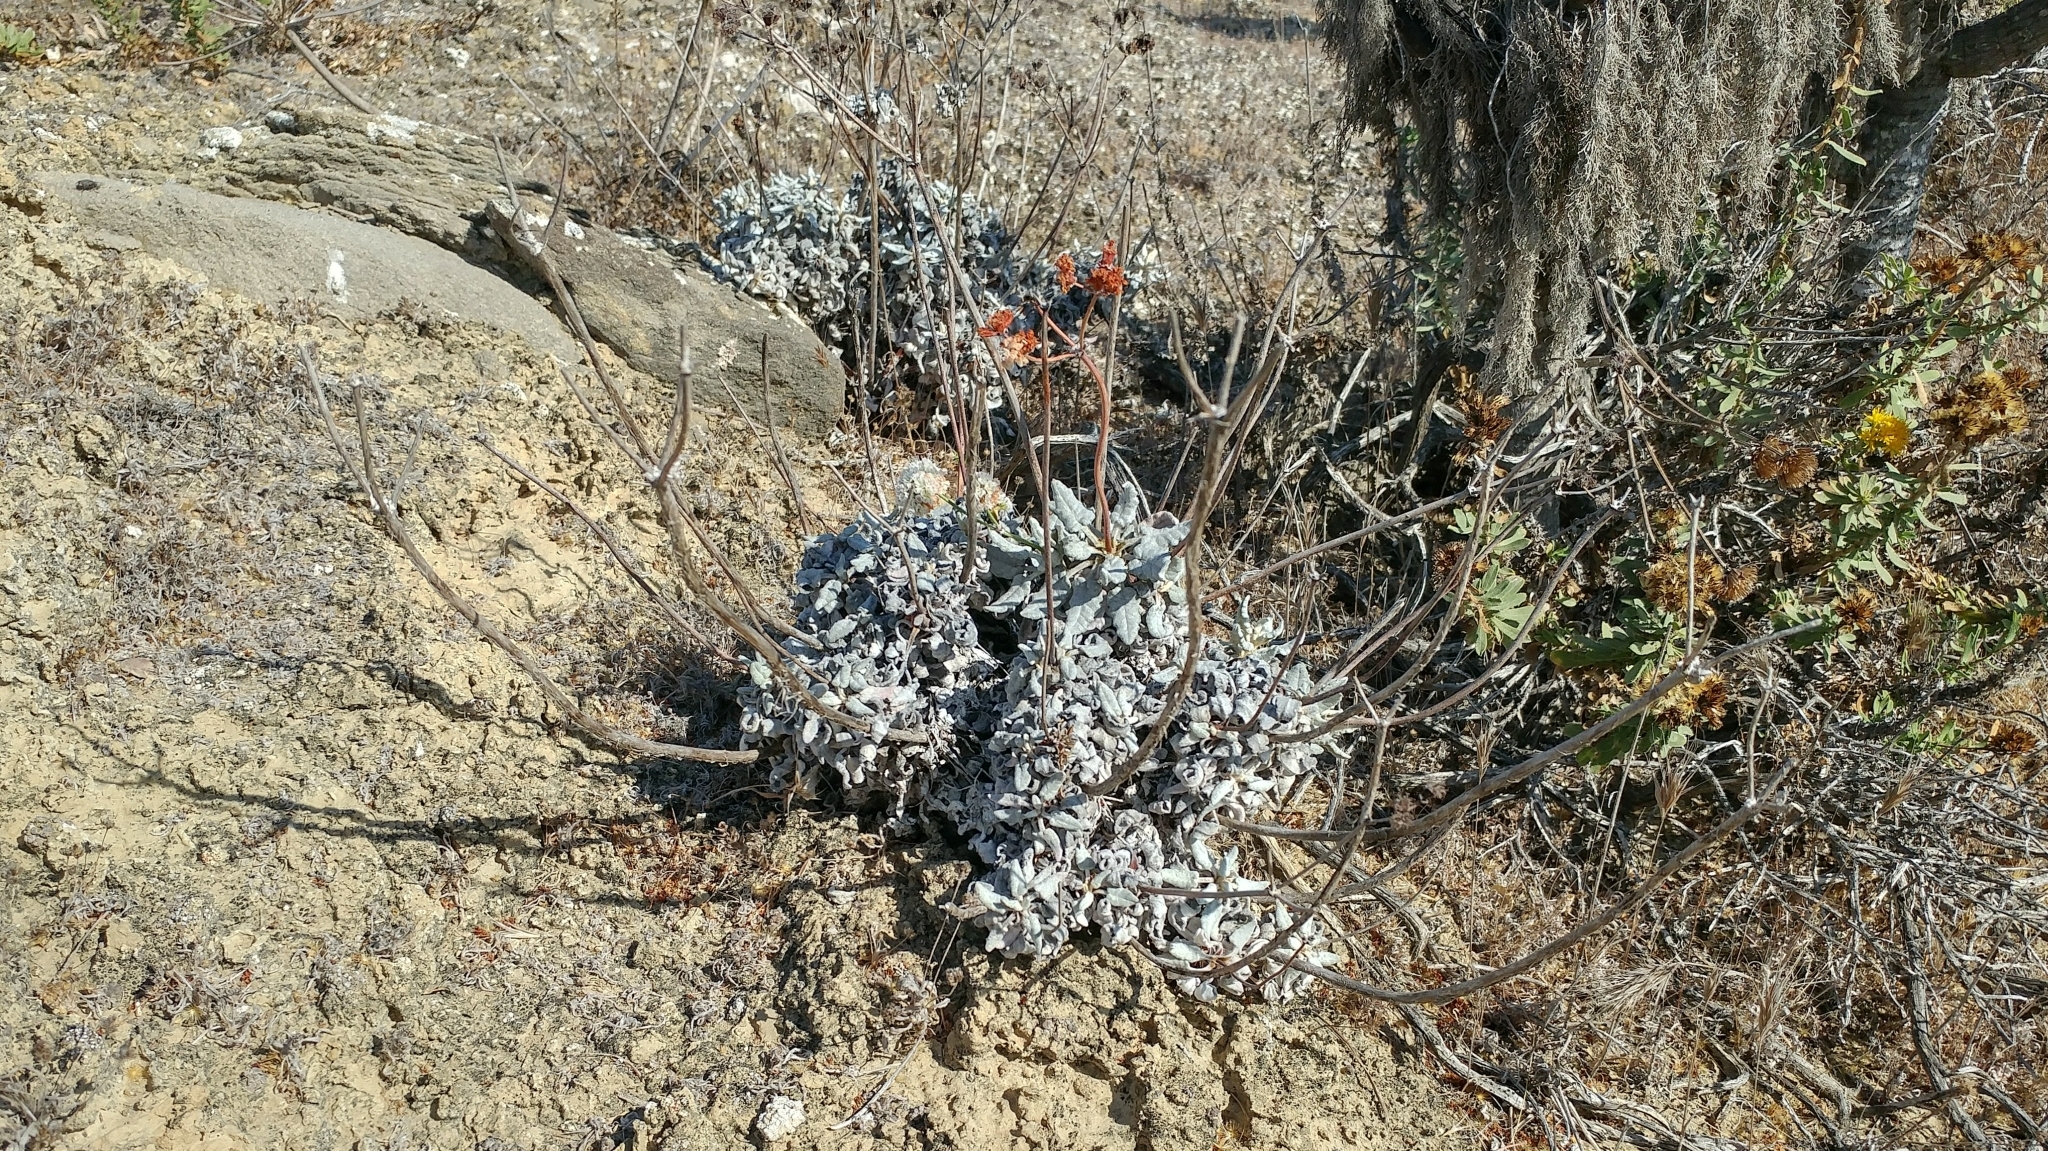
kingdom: Plantae
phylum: Tracheophyta
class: Magnoliopsida
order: Caryophyllales
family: Polygonaceae
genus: Eriogonum
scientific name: Eriogonum grande
